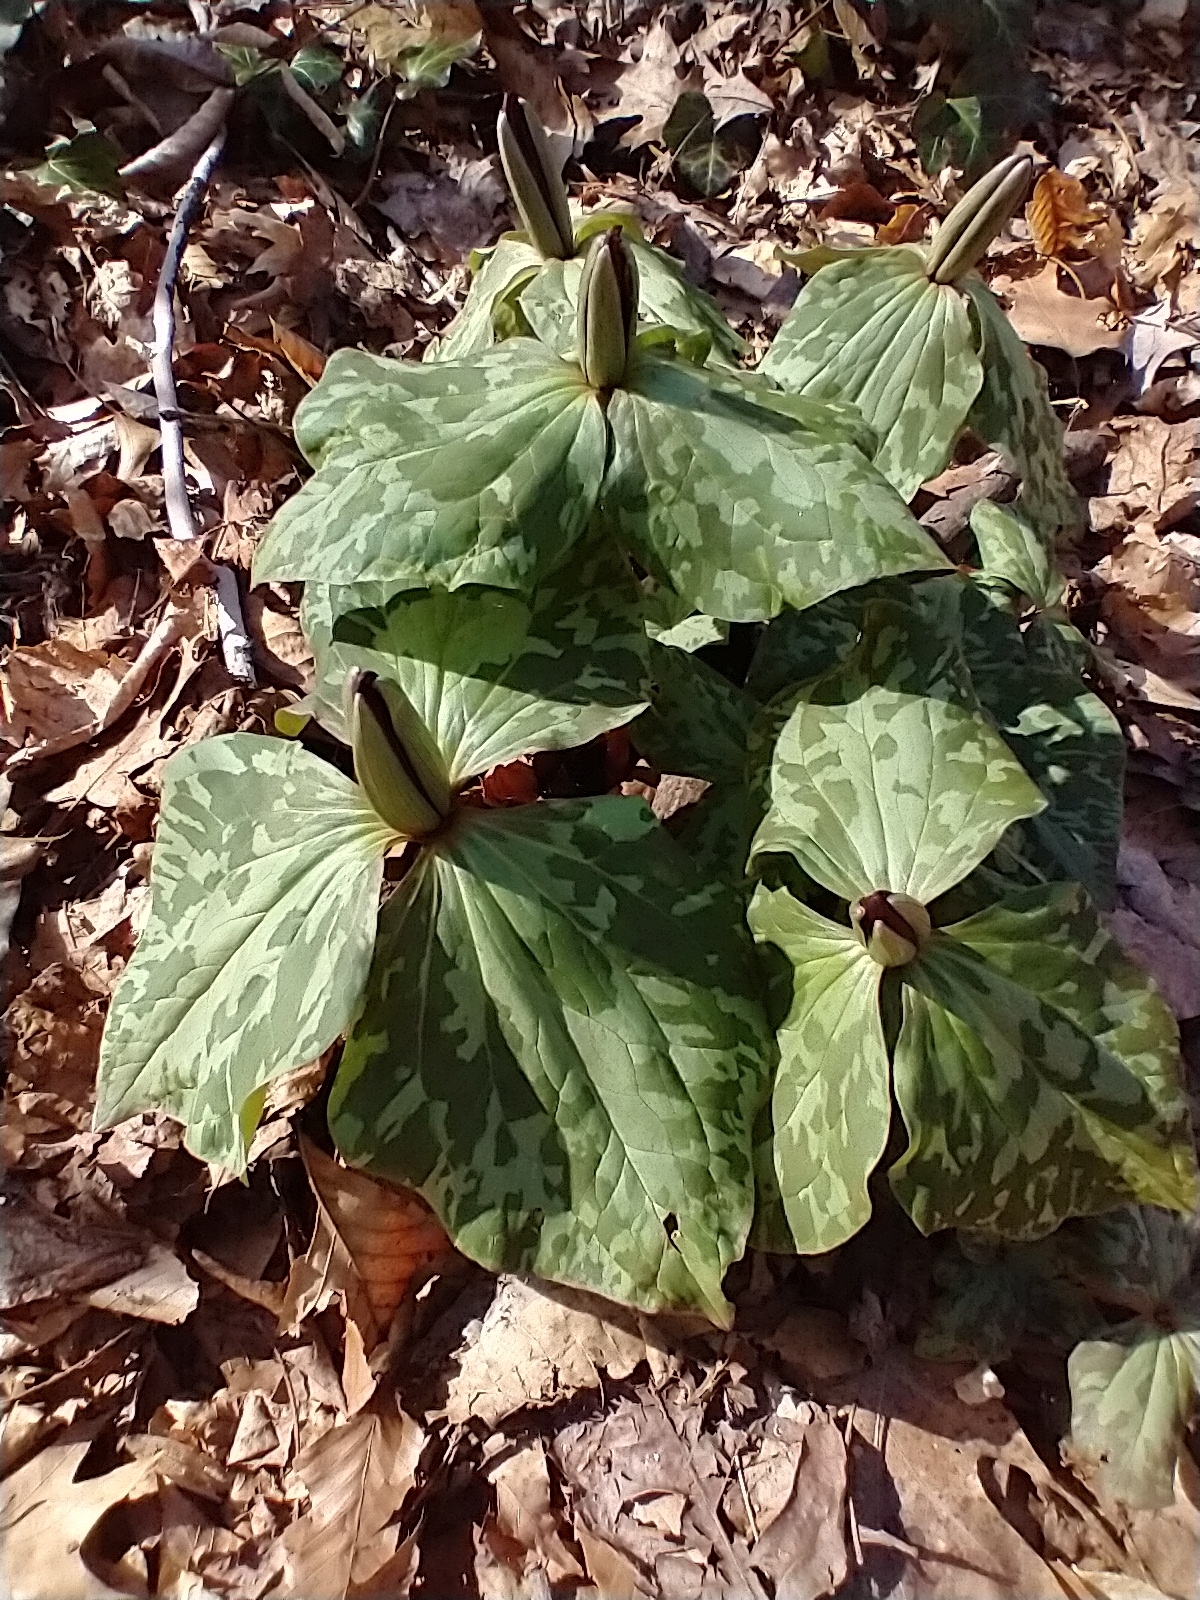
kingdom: Plantae
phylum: Tracheophyta
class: Liliopsida
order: Liliales
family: Melanthiaceae
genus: Trillium
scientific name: Trillium cuneatum
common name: Cuneate trillium
